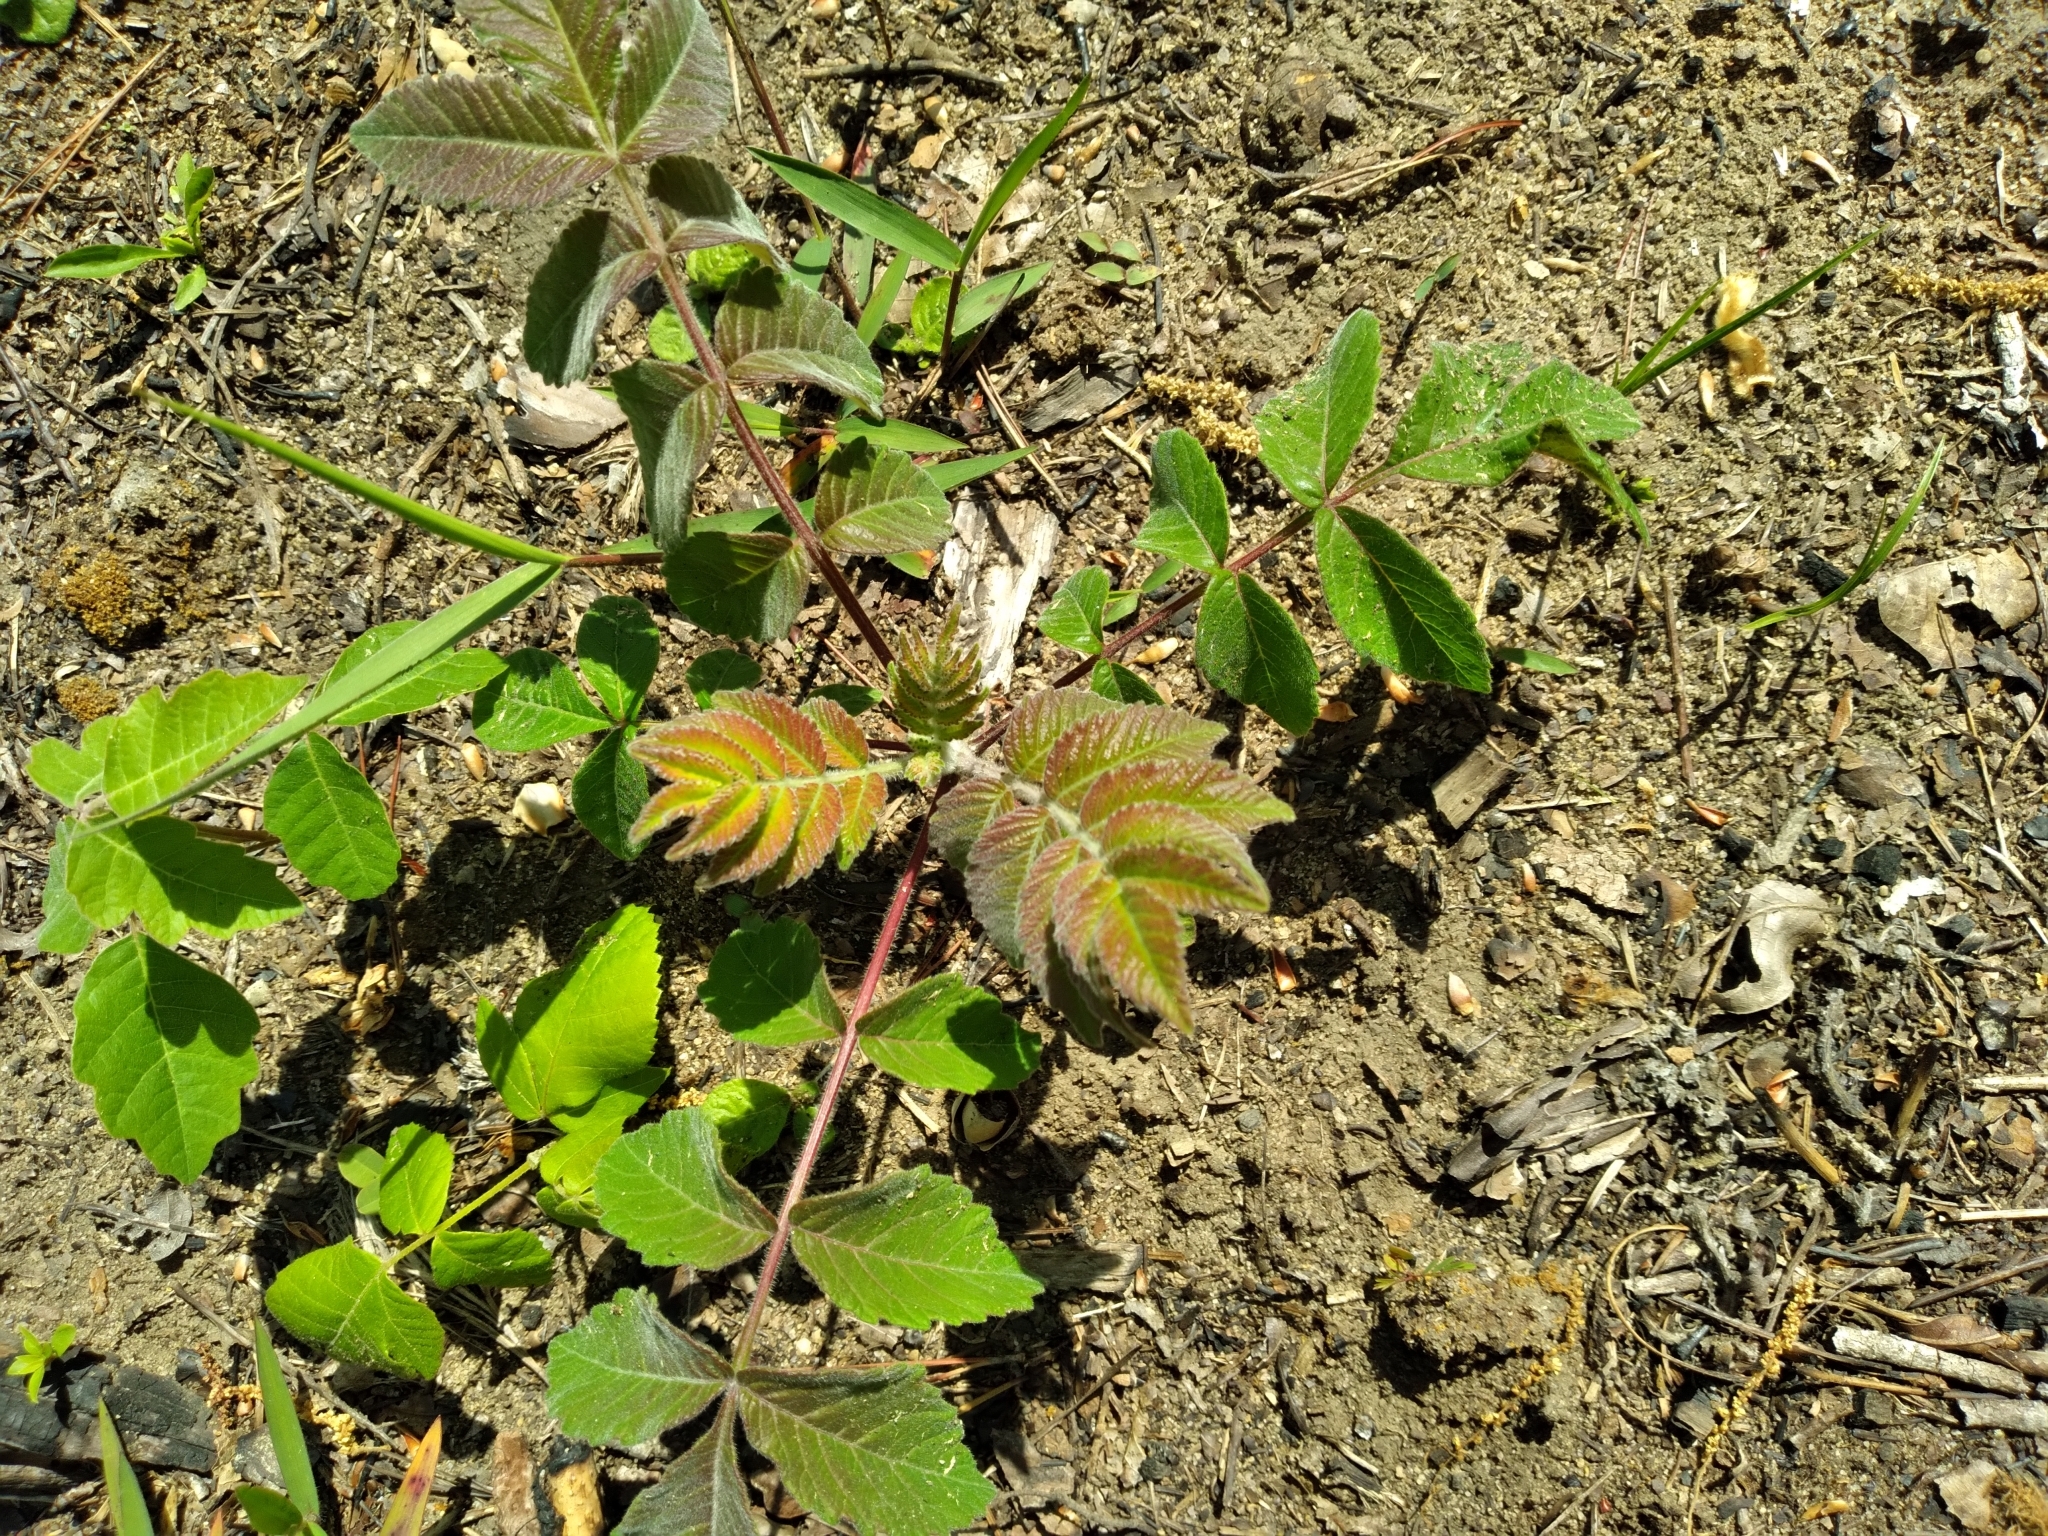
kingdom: Plantae
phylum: Tracheophyta
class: Magnoliopsida
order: Sapindales
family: Anacardiaceae
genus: Rhus
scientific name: Rhus michauxii
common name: Michaux's sumac
